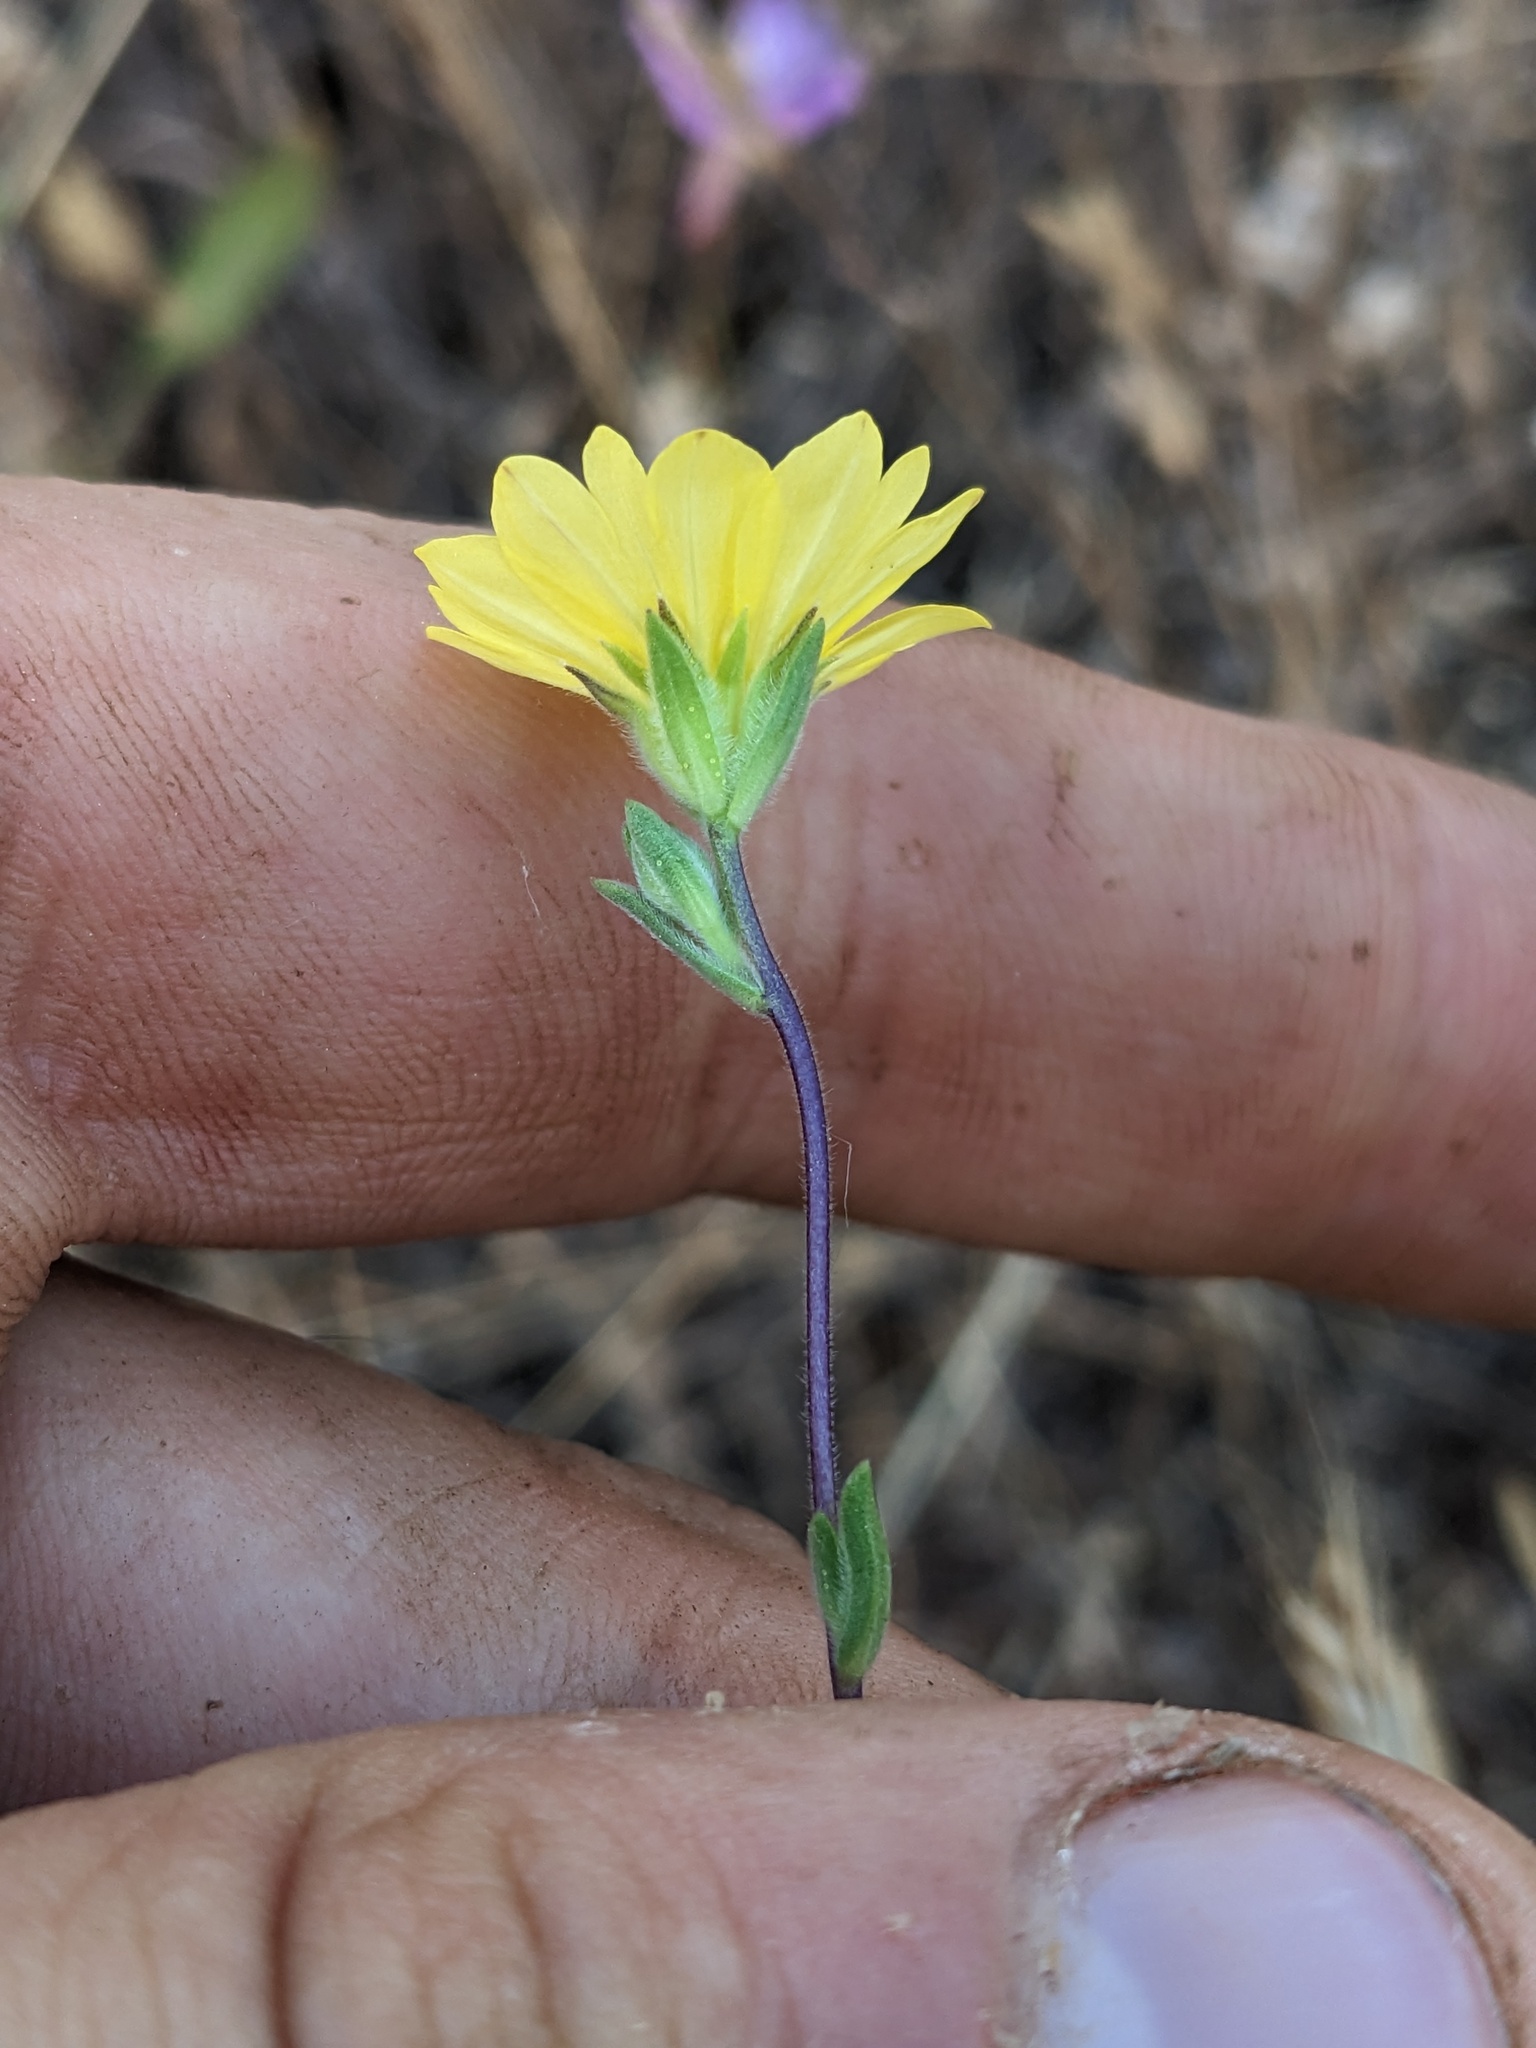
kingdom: Plantae
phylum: Tracheophyta
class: Magnoliopsida
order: Asterales
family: Asteraceae
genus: Lagophylla
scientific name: Lagophylla glandulosa
